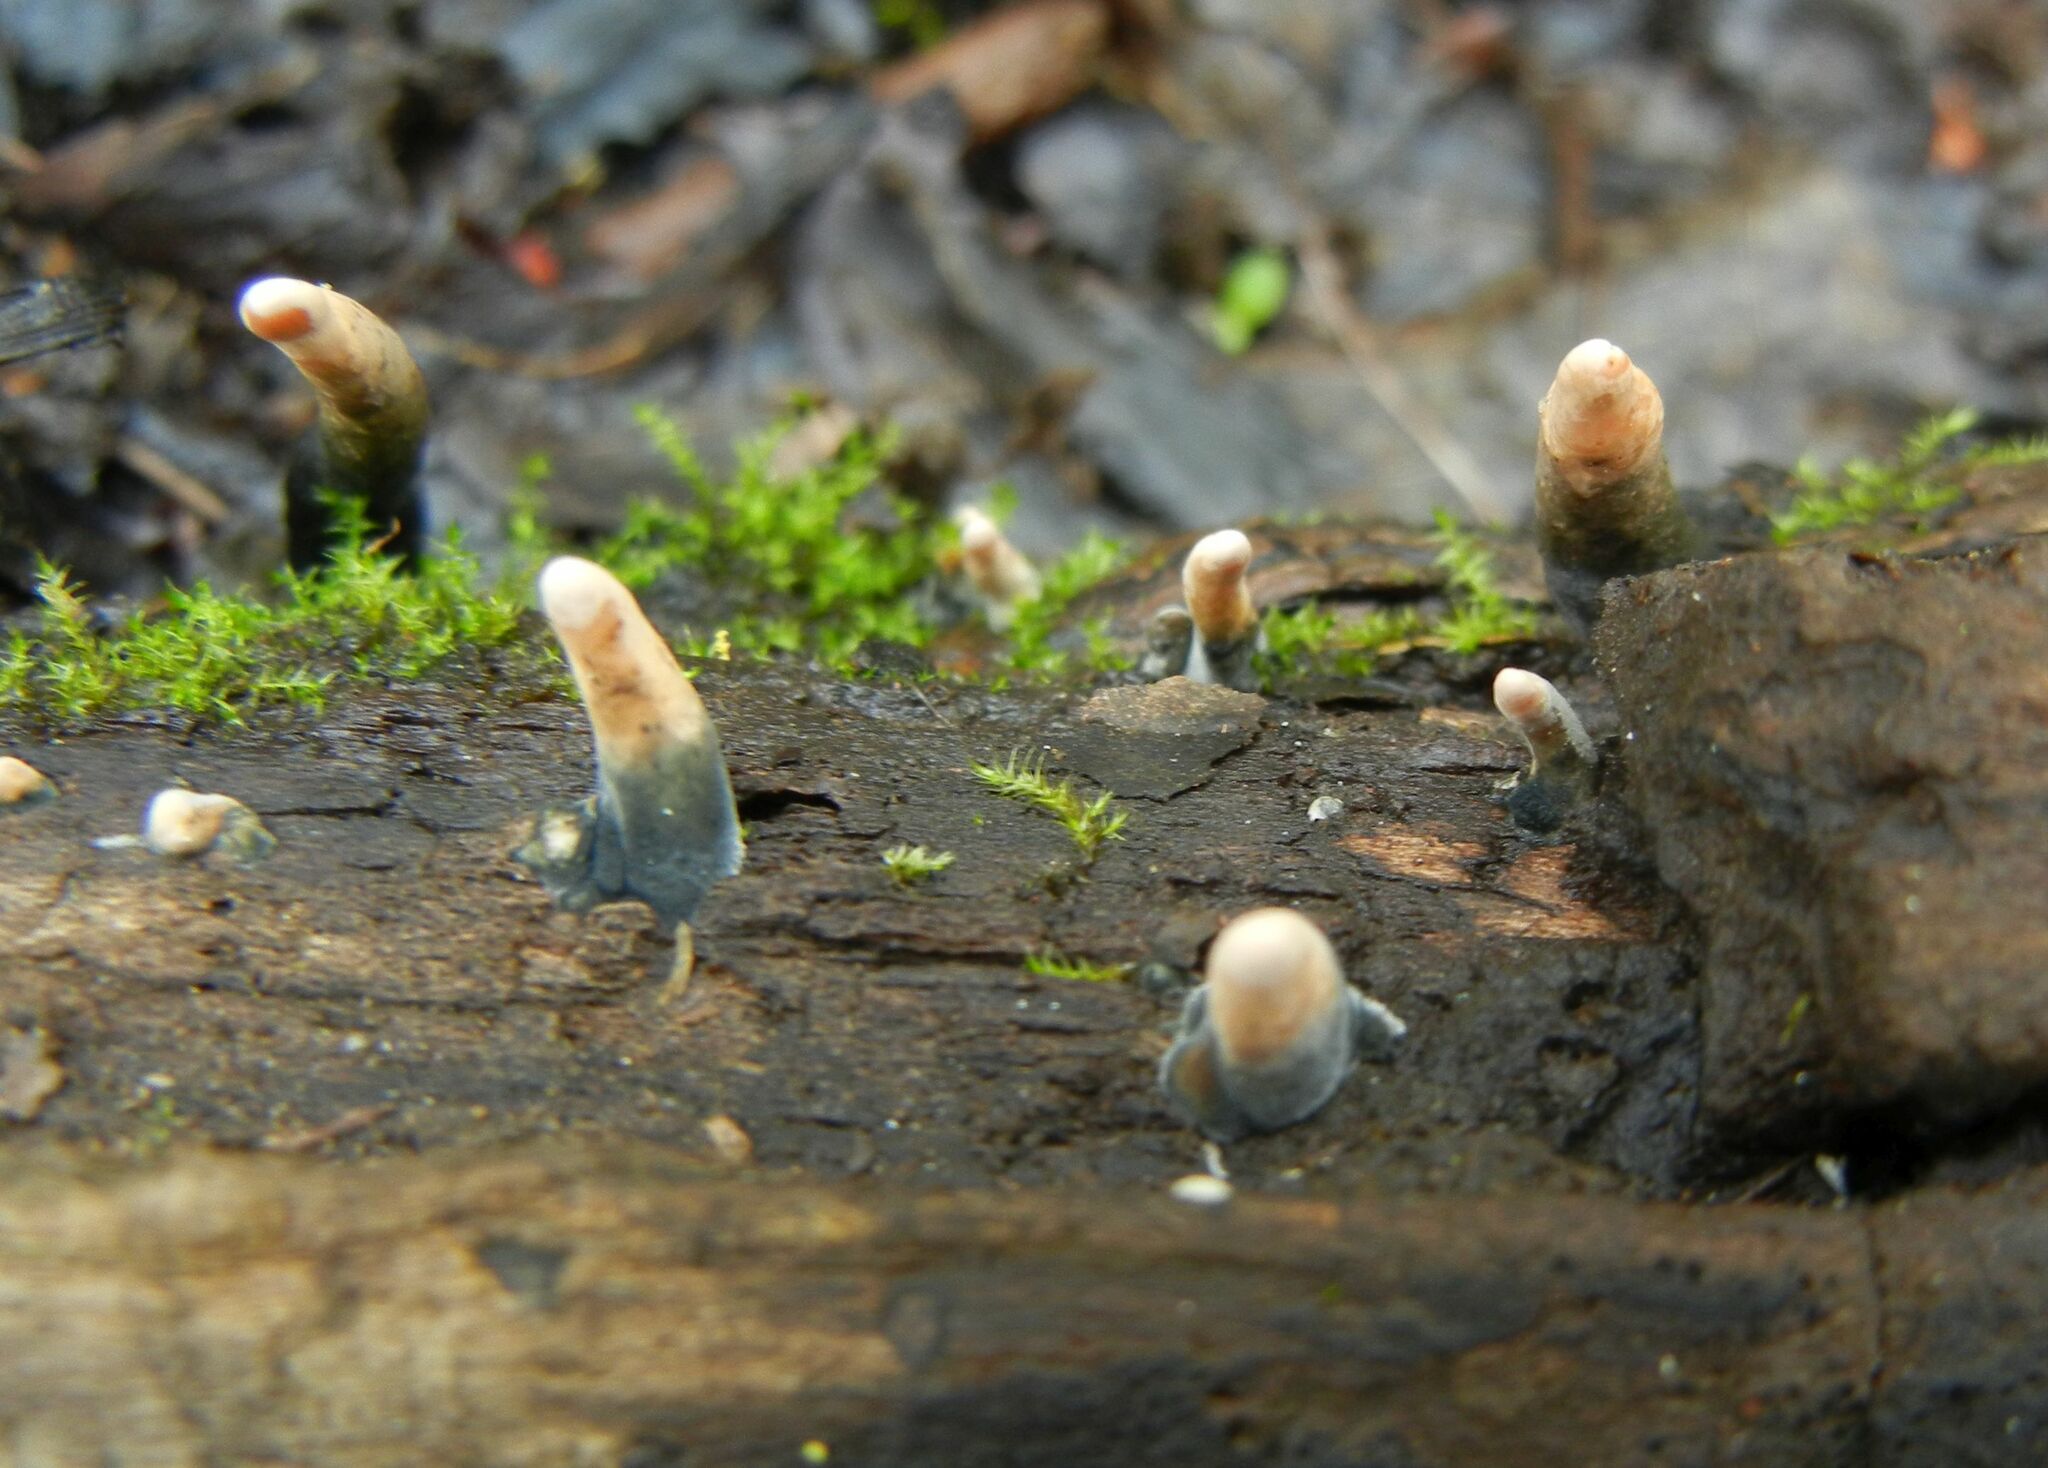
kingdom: Fungi
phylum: Ascomycota
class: Sordariomycetes
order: Xylariales
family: Xylariaceae
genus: Xylaria
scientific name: Xylaria hypoxylon
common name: Candle-snuff fungus
